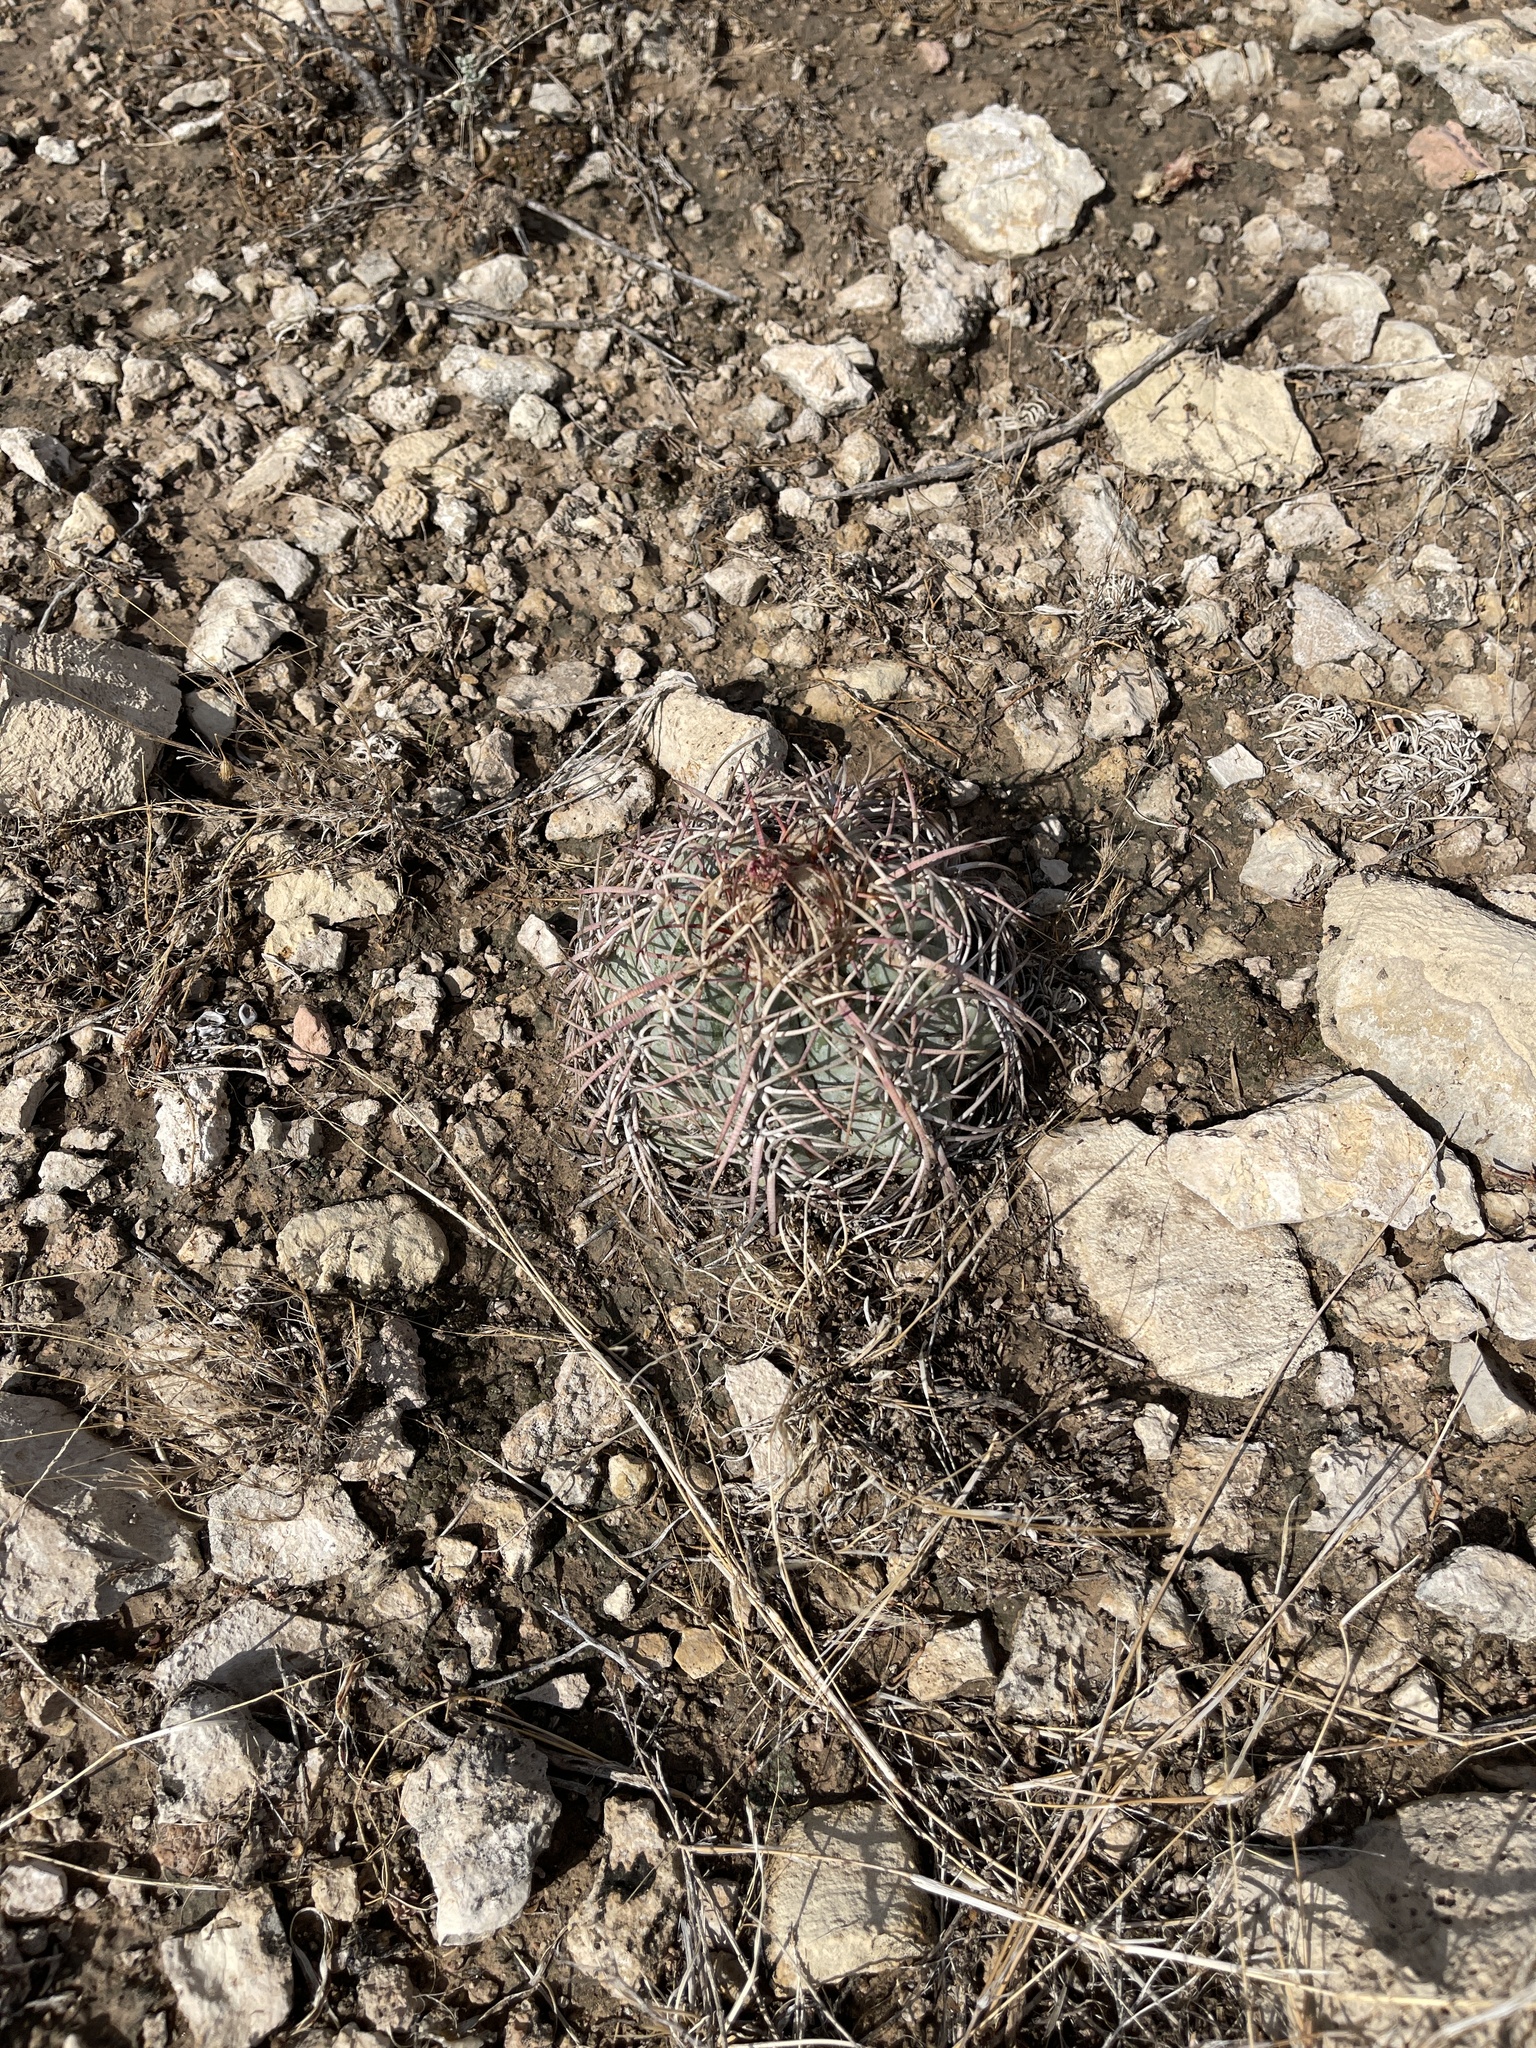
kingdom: Plantae
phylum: Tracheophyta
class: Magnoliopsida
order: Caryophyllales
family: Cactaceae
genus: Echinocactus
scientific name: Echinocactus horizonthalonius
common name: Devilshead
